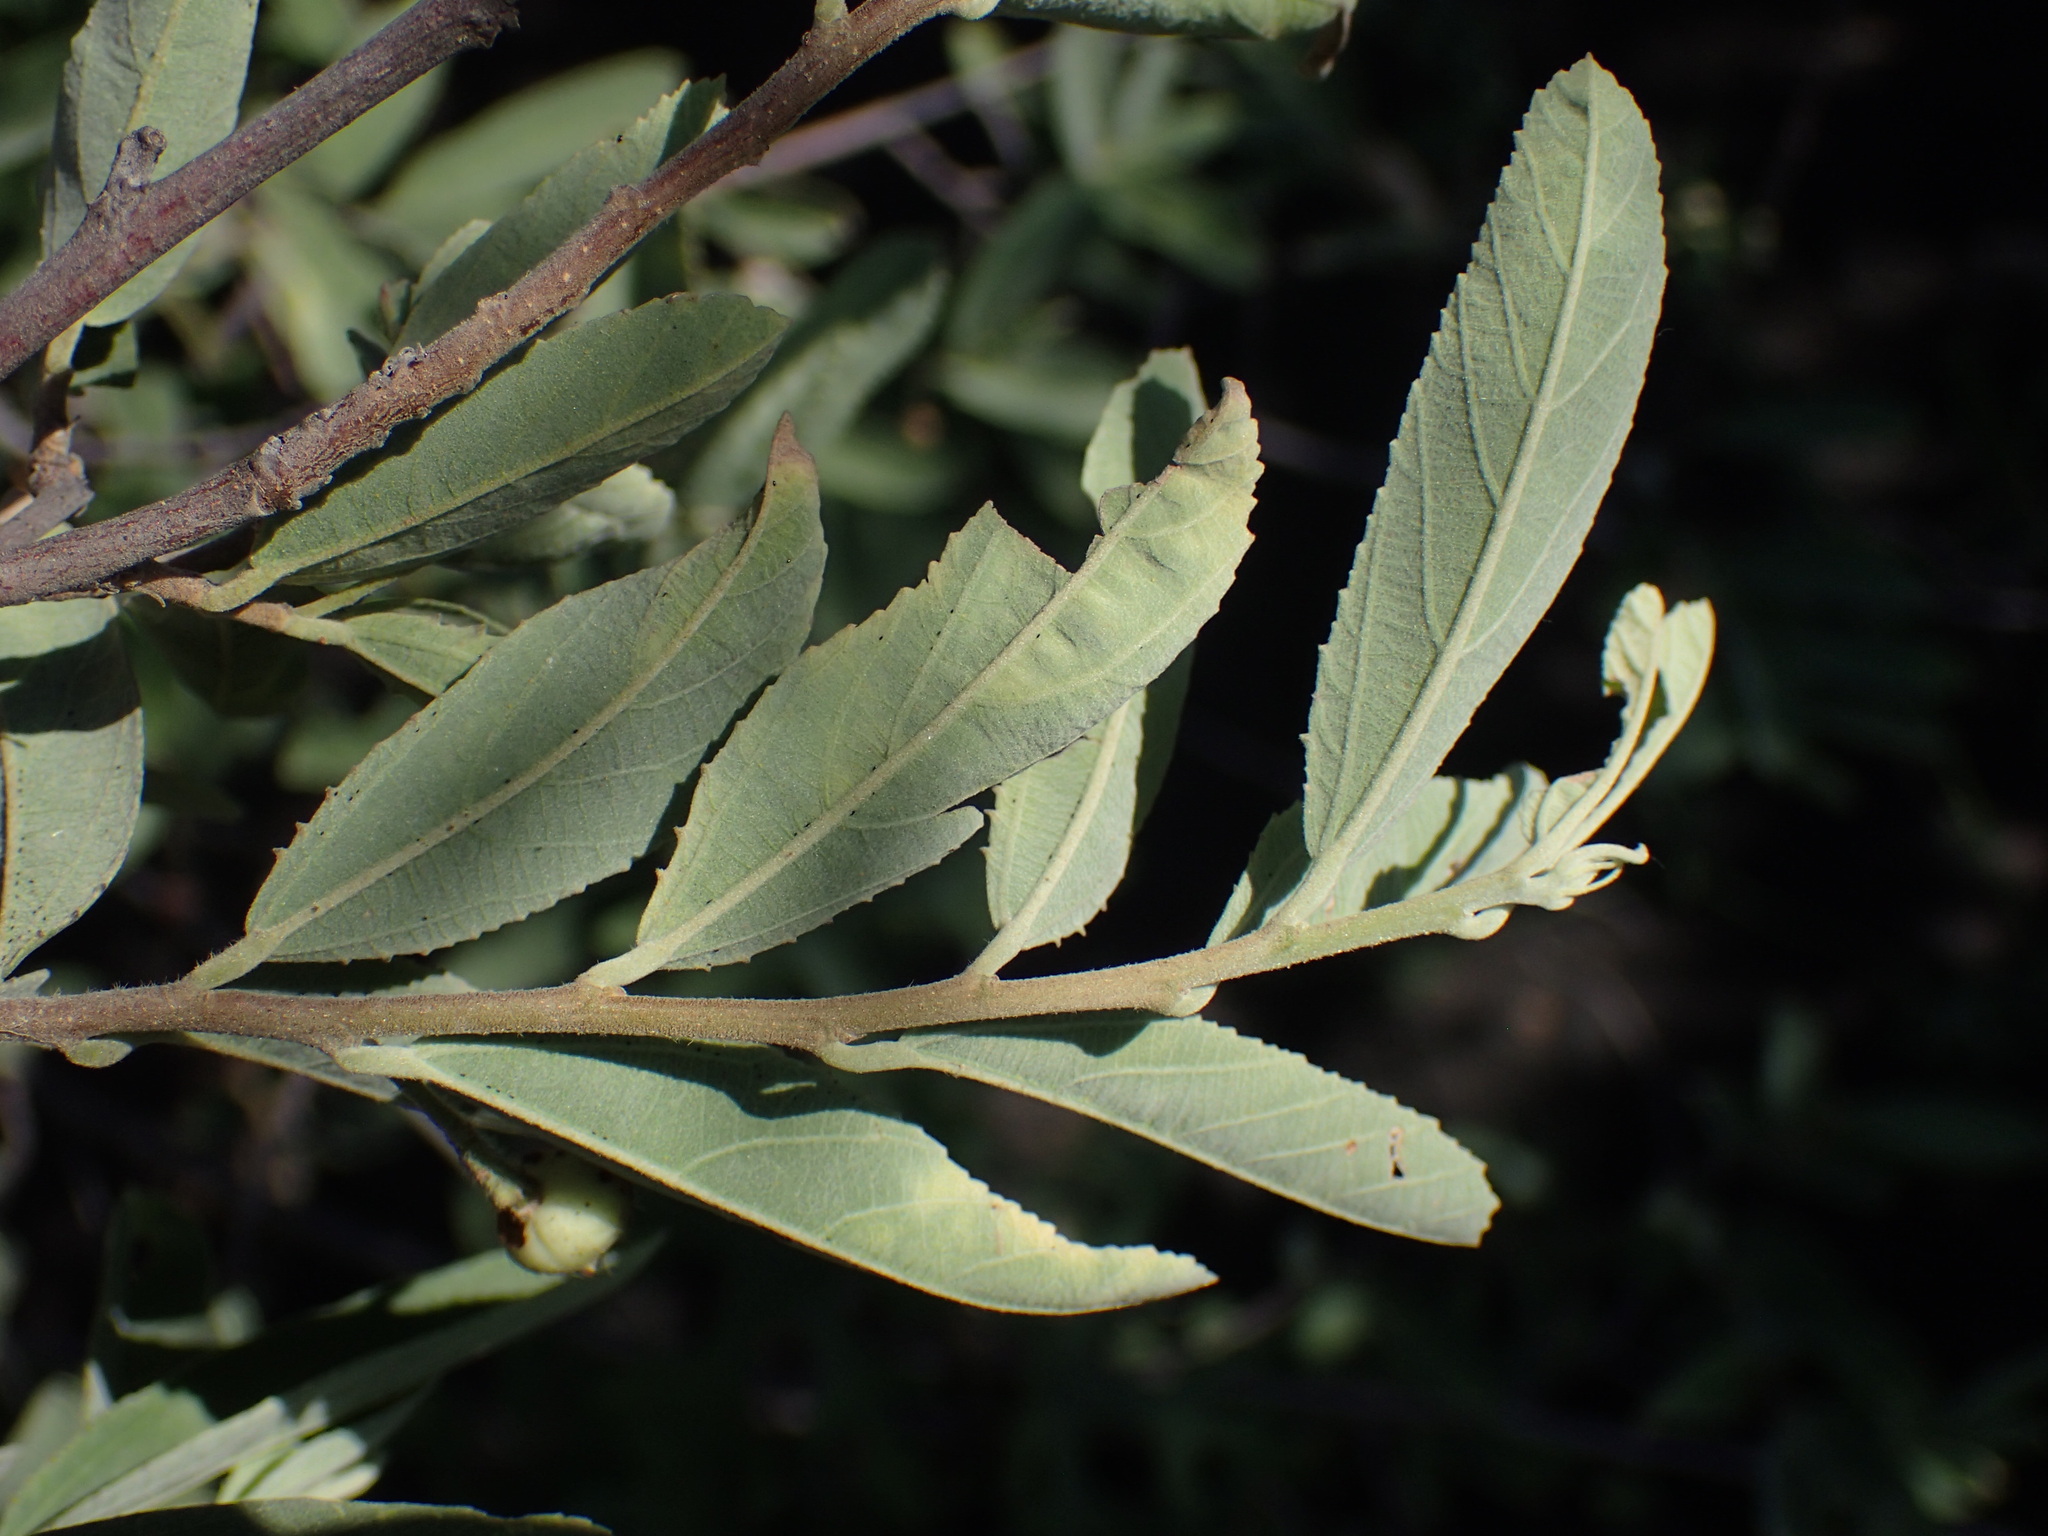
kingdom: Plantae
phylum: Tracheophyta
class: Magnoliopsida
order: Malvales
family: Malvaceae
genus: Grewia
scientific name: Grewia flava
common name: Brandy bush
